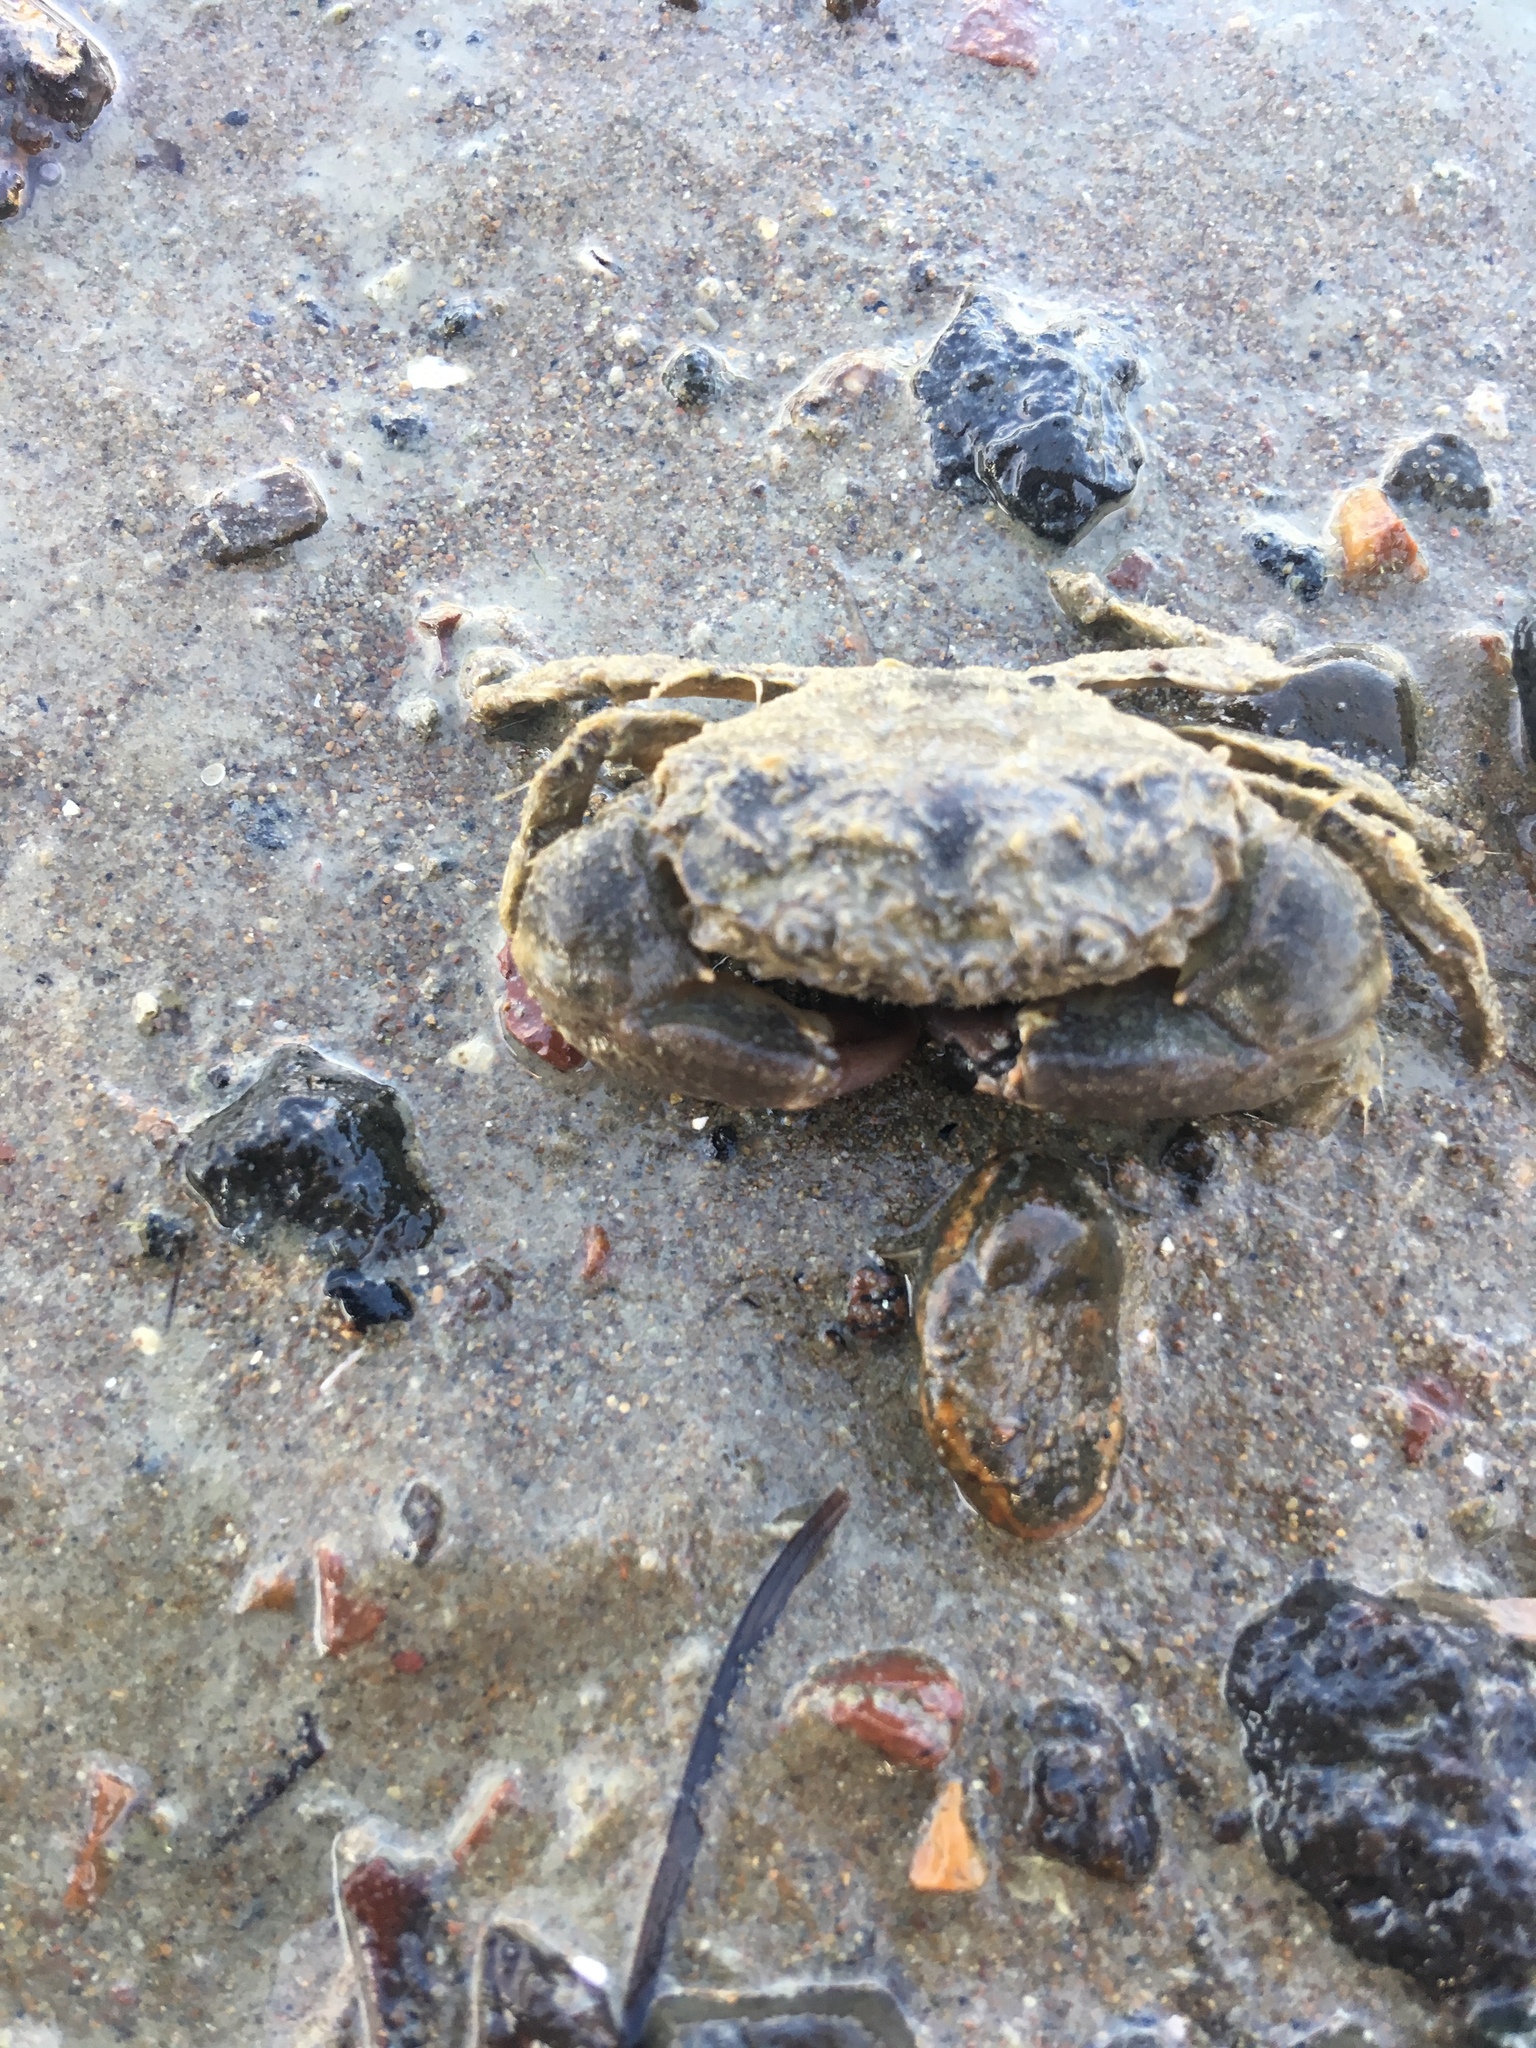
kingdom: Animalia
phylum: Arthropoda
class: Malacostraca
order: Decapoda
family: Pilumnidae
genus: Pilumnopeus
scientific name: Pilumnopeus serratifrons
